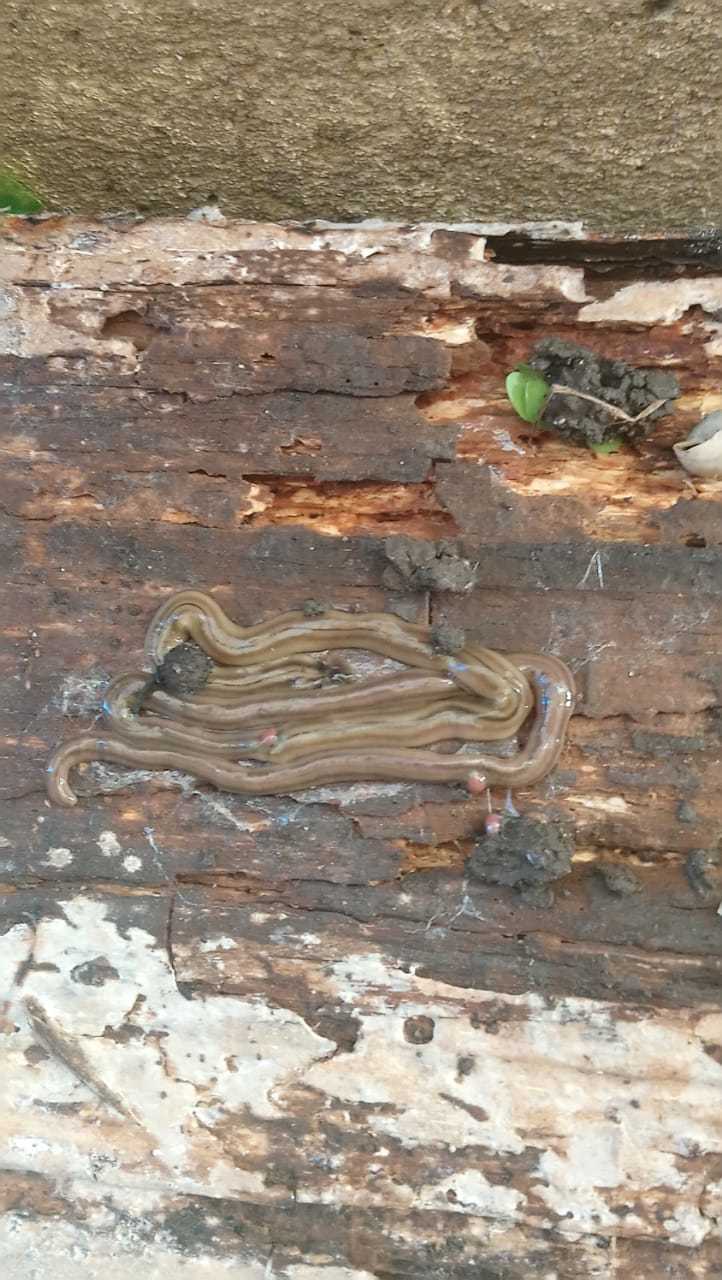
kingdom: Animalia
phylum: Platyhelminthes
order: Tricladida
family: Geoplanidae
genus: Bipalium
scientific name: Bipalium kewense
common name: Hammerhead flatworm
